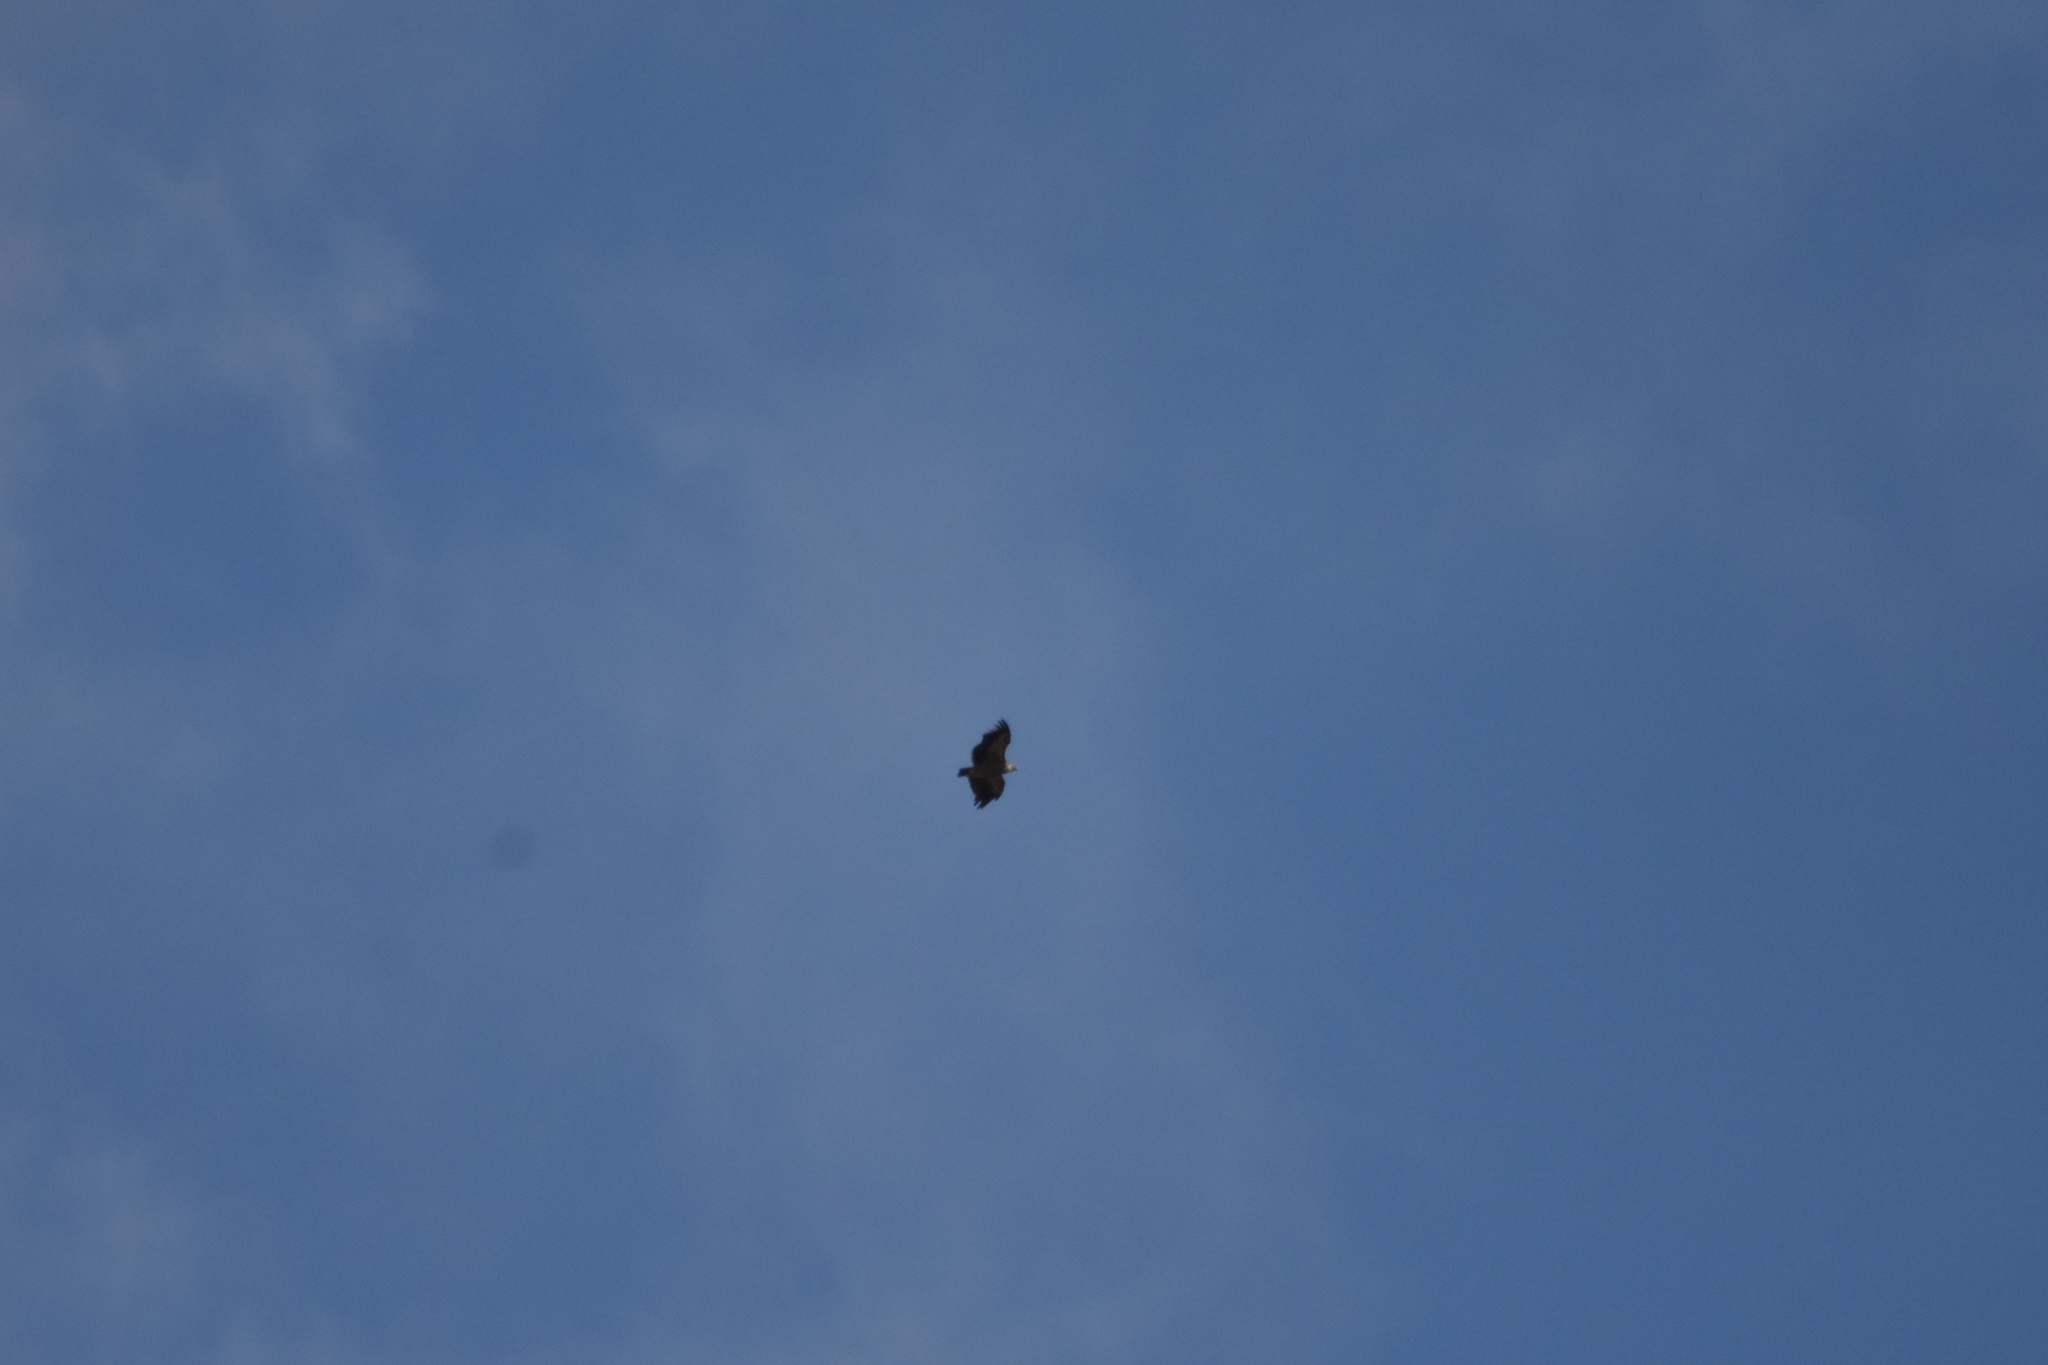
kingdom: Animalia
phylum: Chordata
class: Aves
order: Accipitriformes
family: Accipitridae
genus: Gyps
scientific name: Gyps fulvus
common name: Griffon vulture
